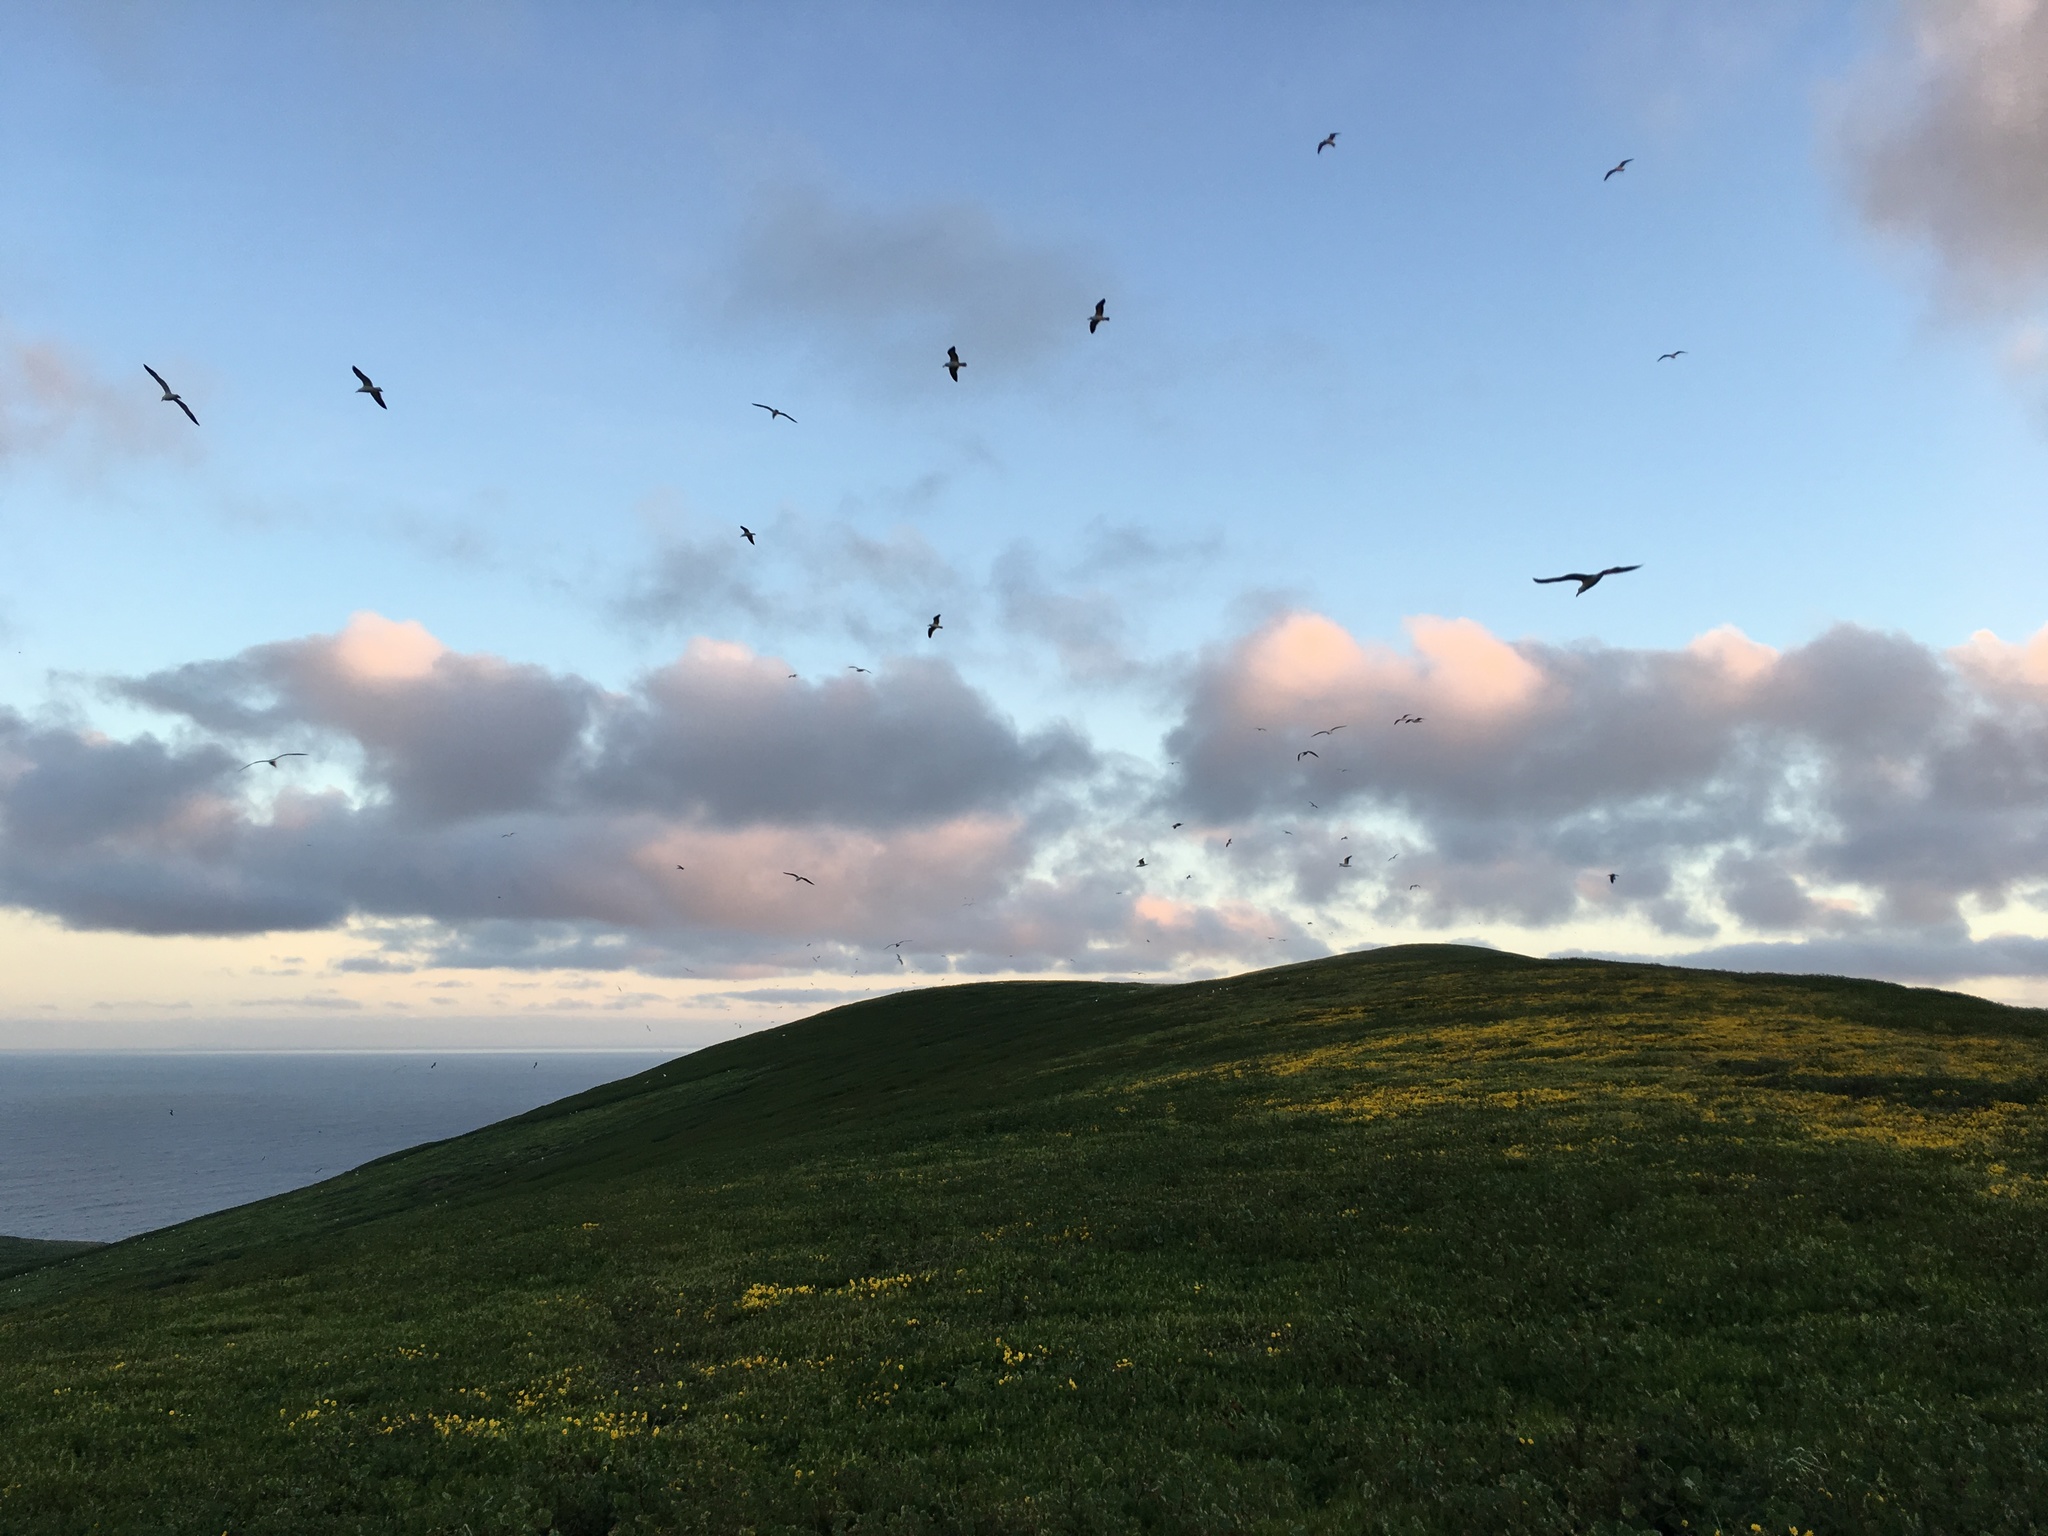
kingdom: Plantae
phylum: Tracheophyta
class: Magnoliopsida
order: Asterales
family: Asteraceae
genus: Lasthenia
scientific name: Lasthenia gracilis
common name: Common goldfields
